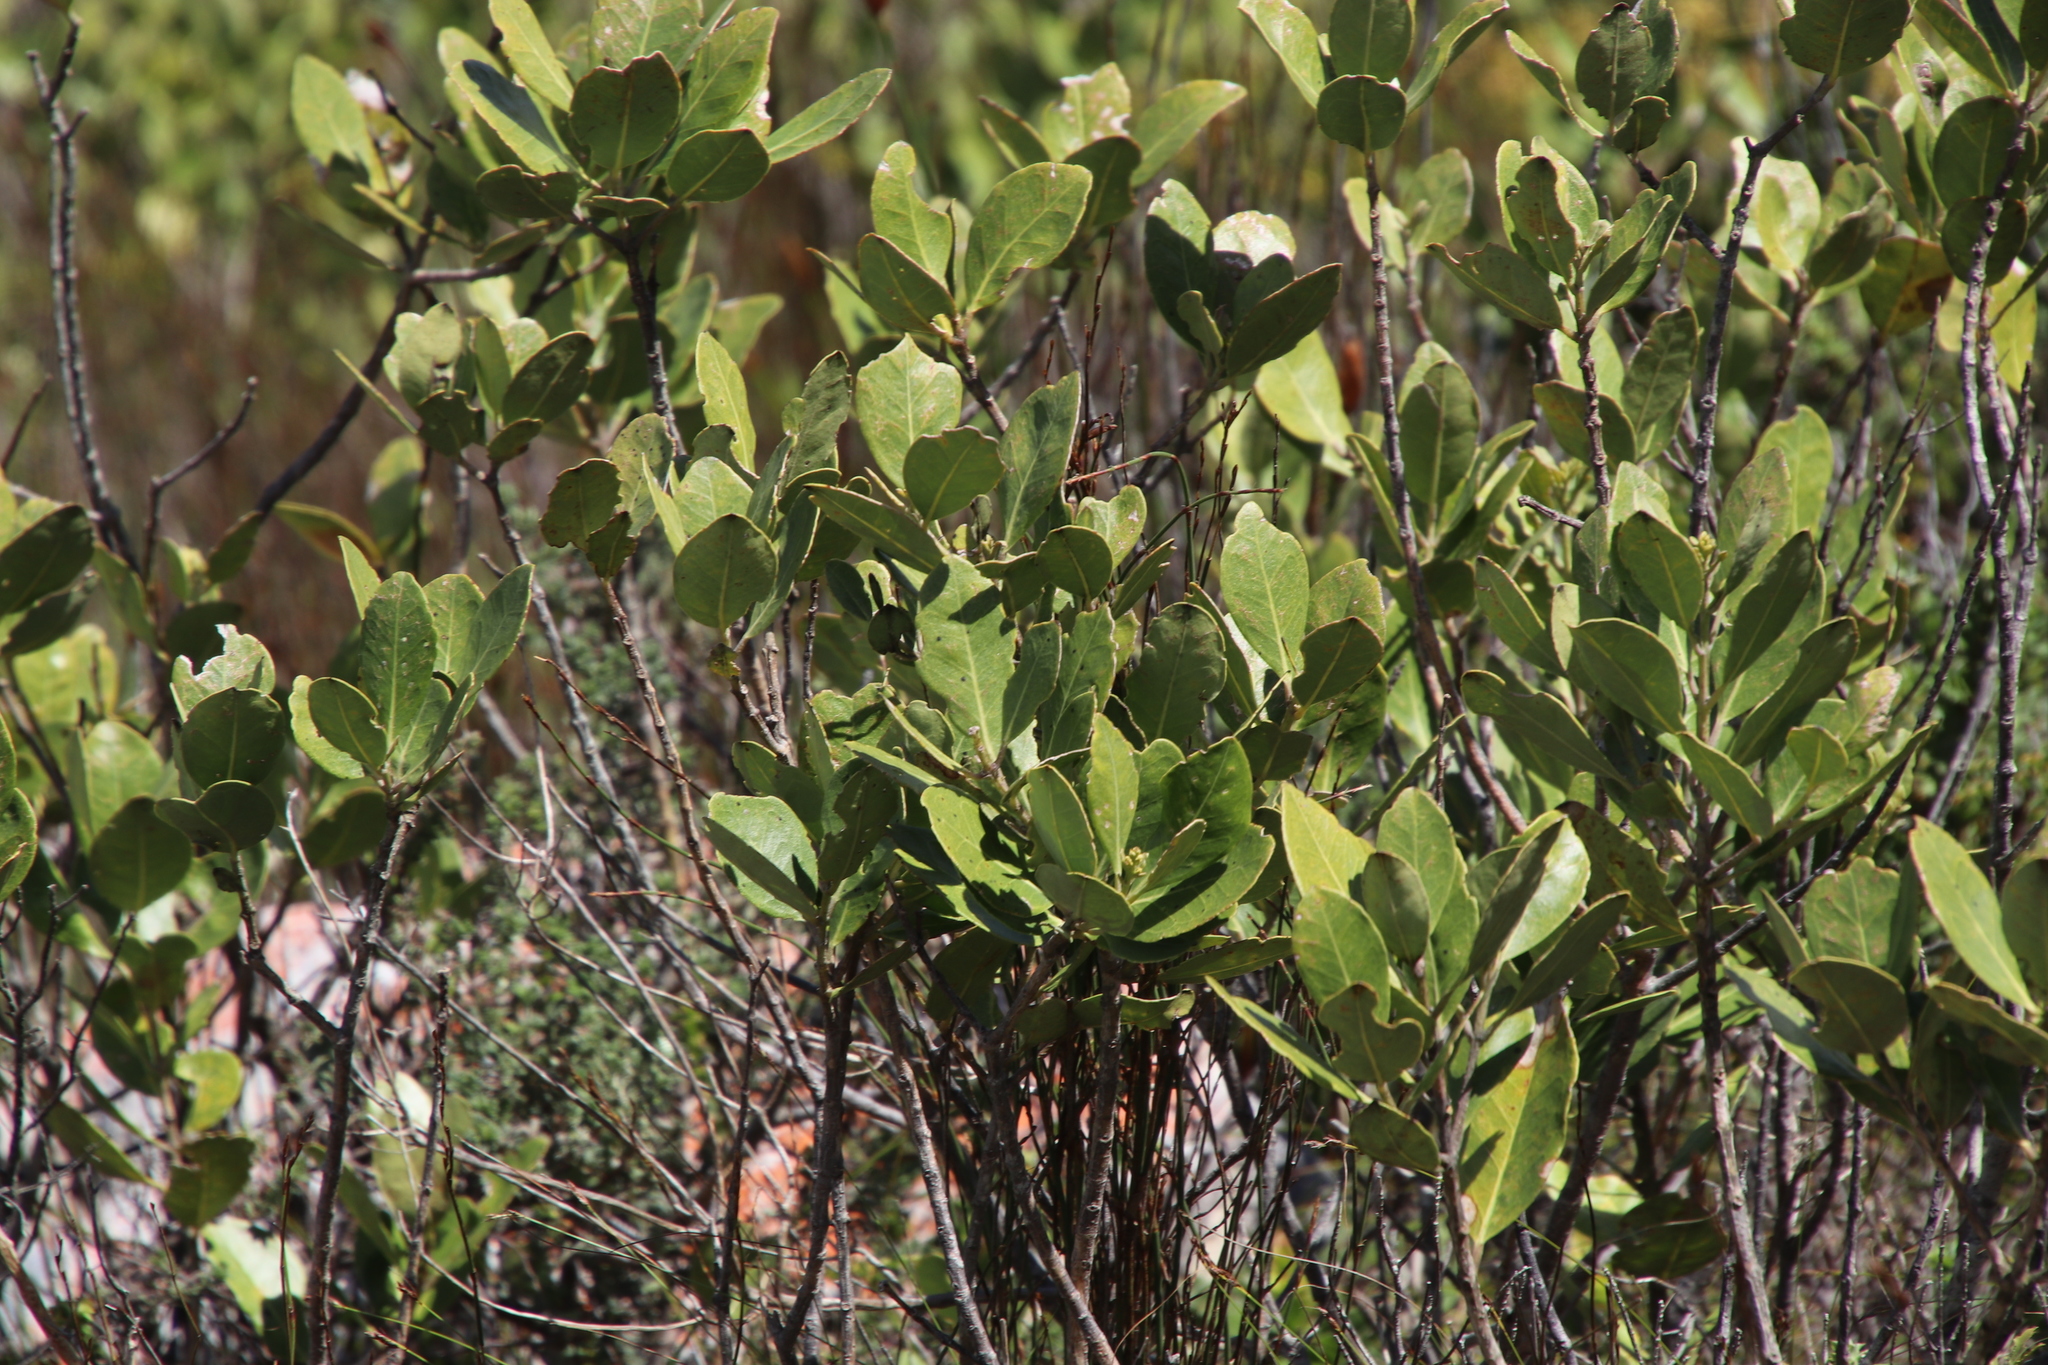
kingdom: Plantae
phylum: Tracheophyta
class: Magnoliopsida
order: Lamiales
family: Oleaceae
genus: Olea
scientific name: Olea capensis
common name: Black ironwood
